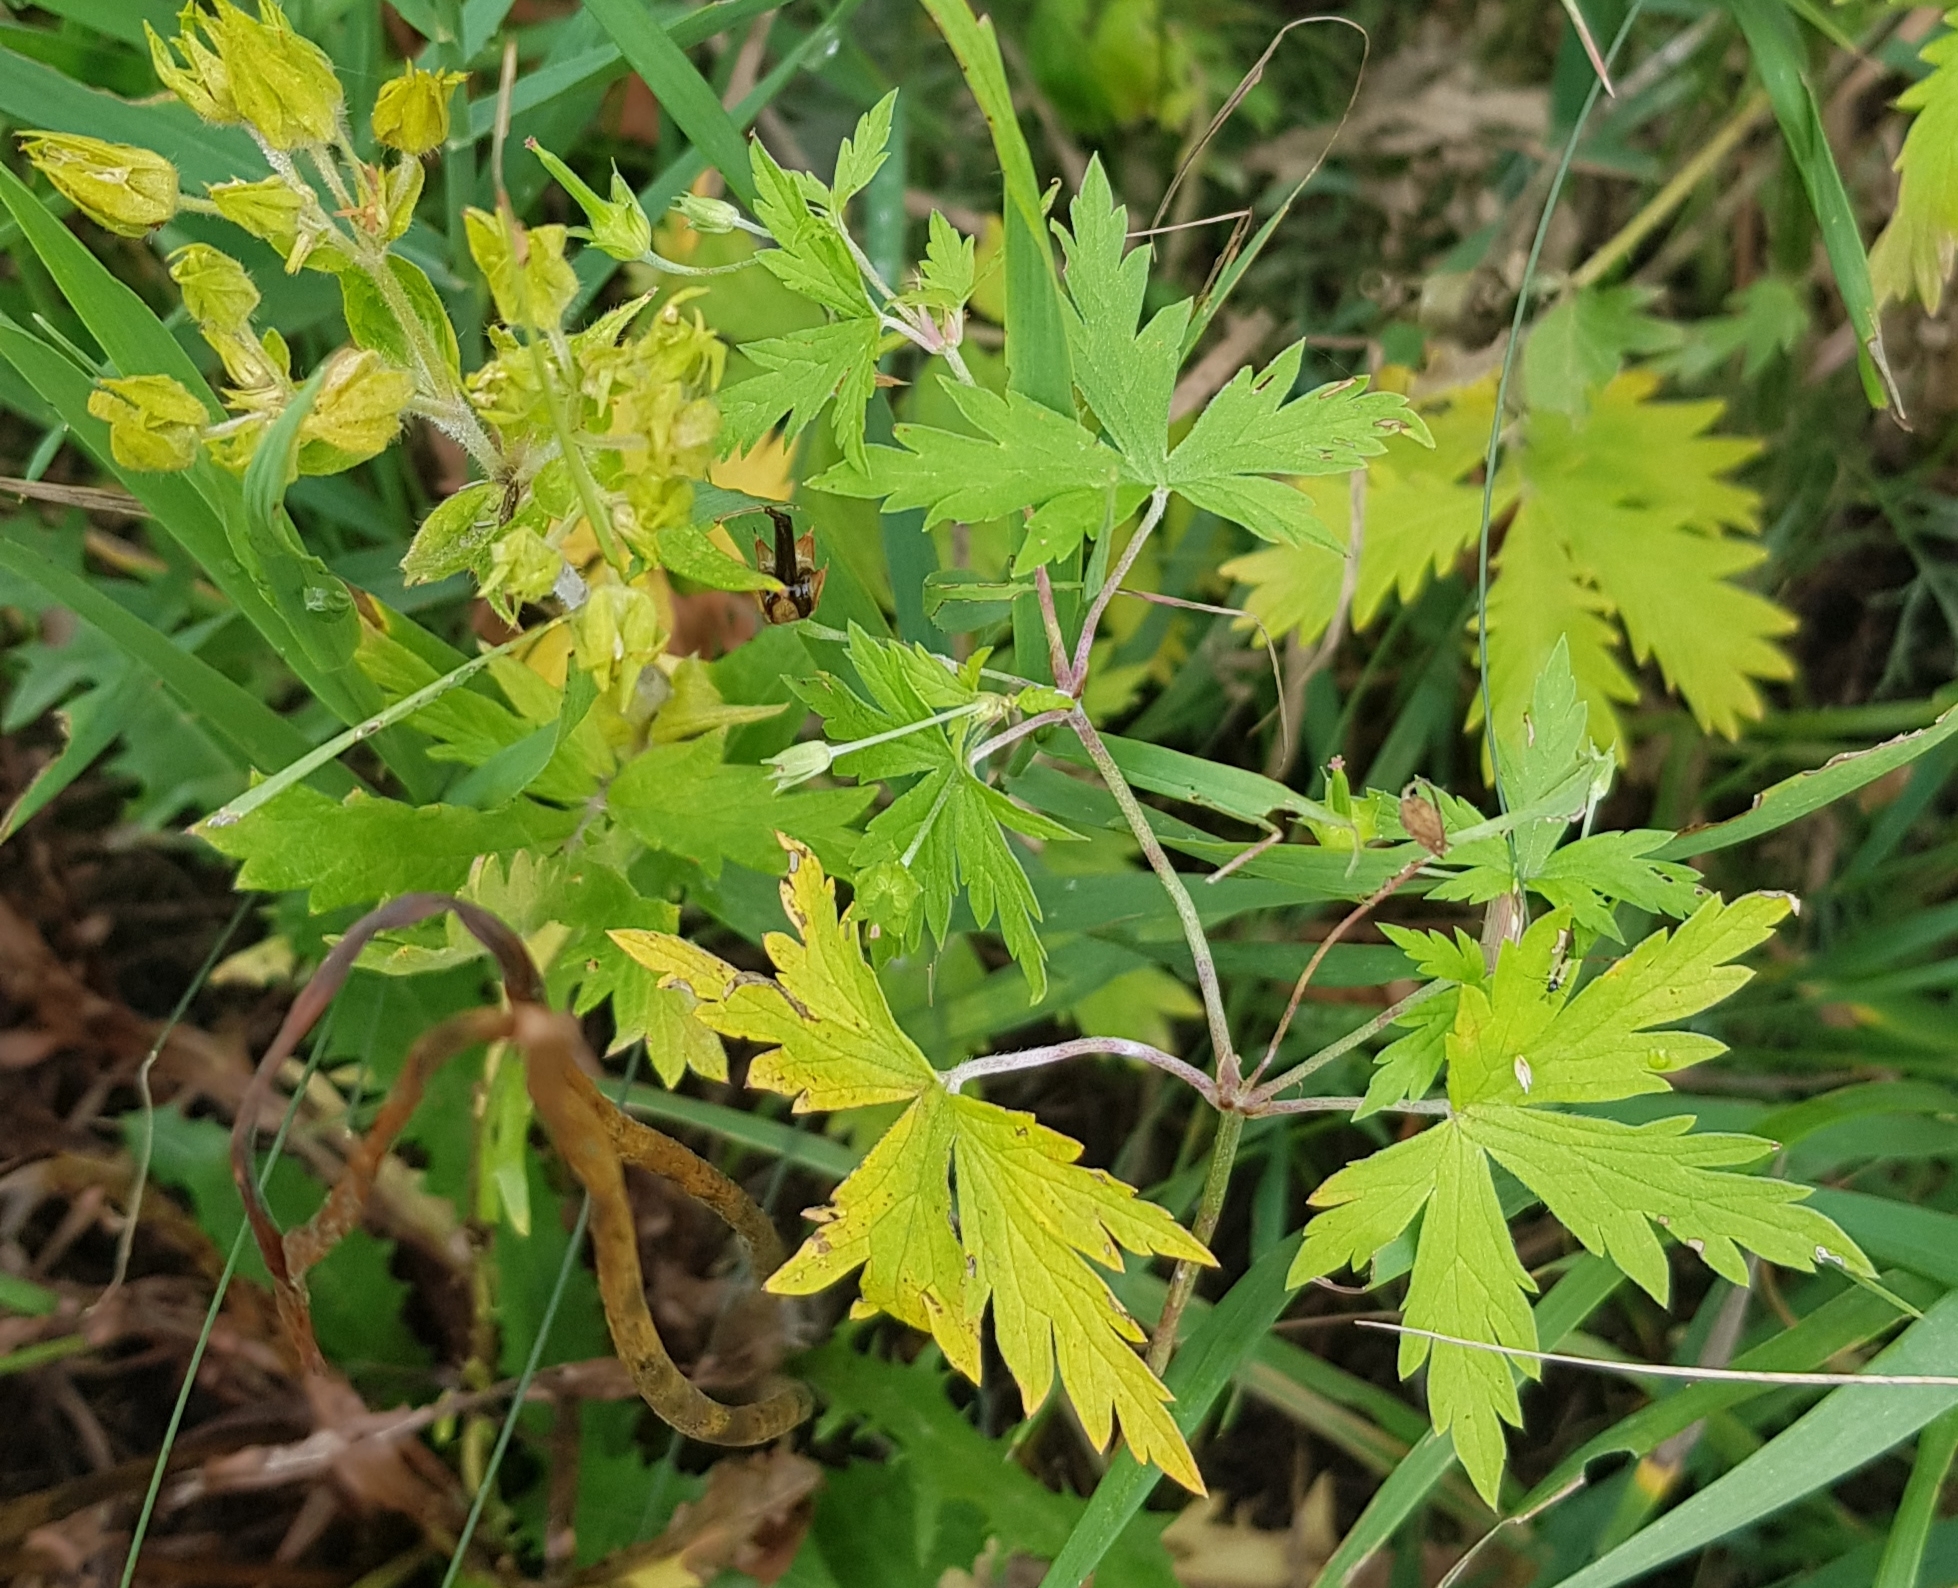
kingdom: Plantae
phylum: Tracheophyta
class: Magnoliopsida
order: Geraniales
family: Geraniaceae
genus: Geranium
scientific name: Geranium sibiricum
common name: Siberian crane's-bill
